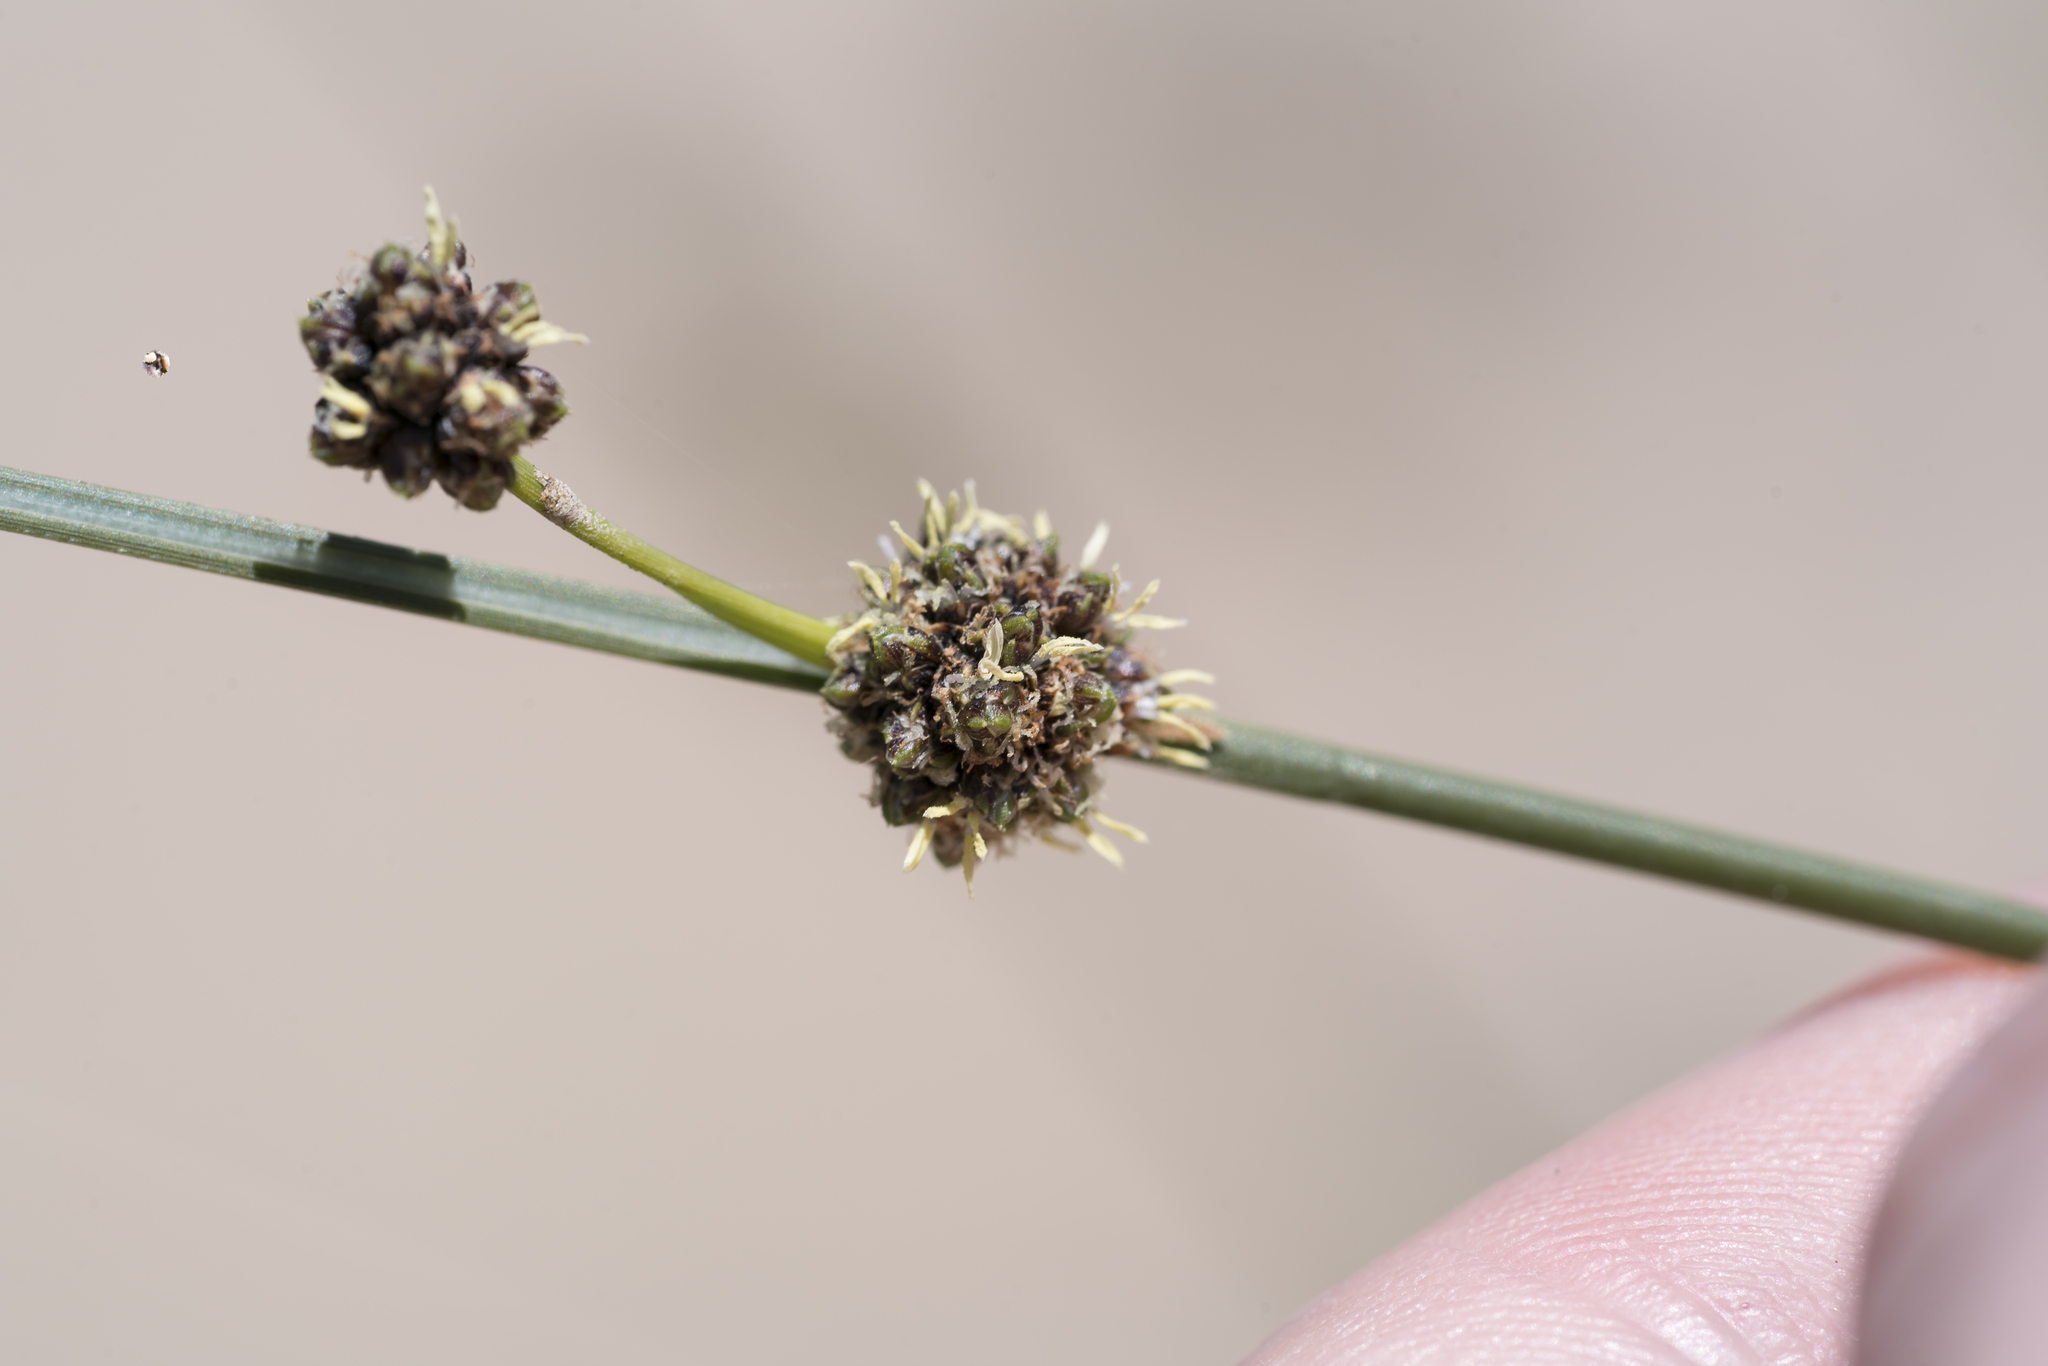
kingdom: Plantae
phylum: Tracheophyta
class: Liliopsida
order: Poales
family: Cyperaceae
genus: Scirpoides
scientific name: Scirpoides holoschoenus
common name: Round-headed club-rush
